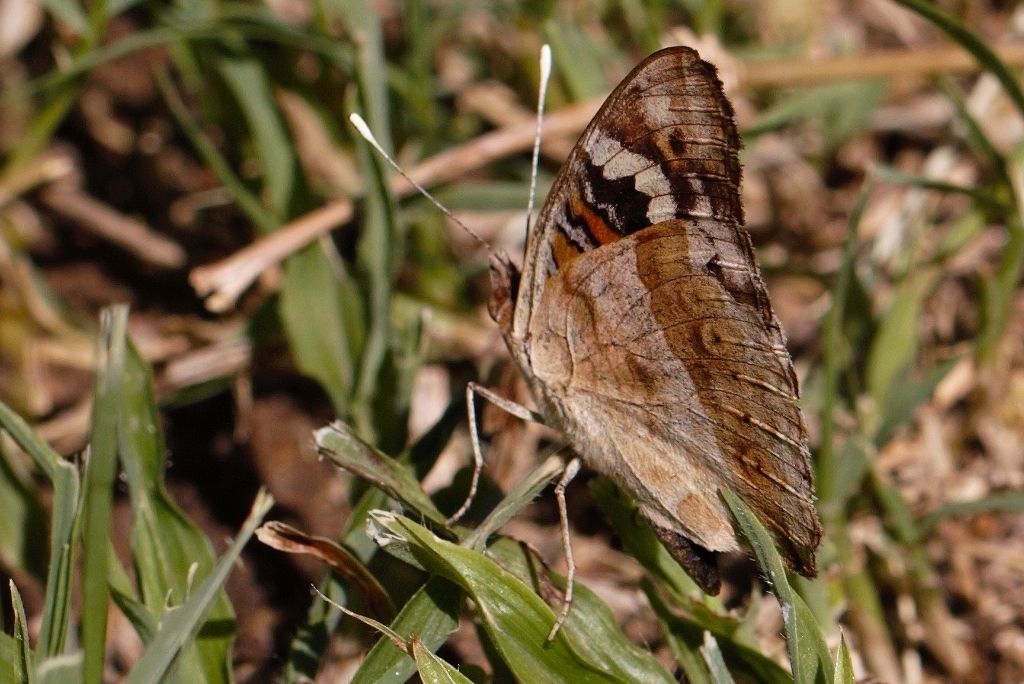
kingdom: Animalia
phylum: Arthropoda
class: Insecta
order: Lepidoptera
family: Nymphalidae
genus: Junonia
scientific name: Junonia oenone
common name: Dark blue pansy
